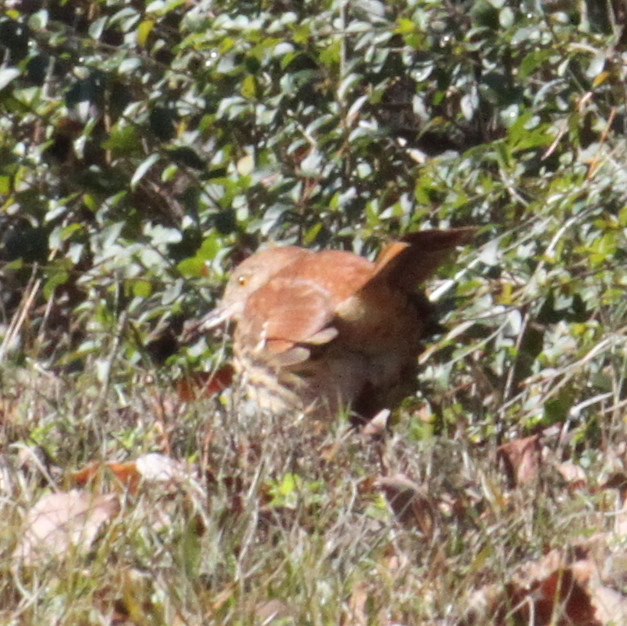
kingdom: Animalia
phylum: Chordata
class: Aves
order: Passeriformes
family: Mimidae
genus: Toxostoma
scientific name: Toxostoma rufum
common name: Brown thrasher
